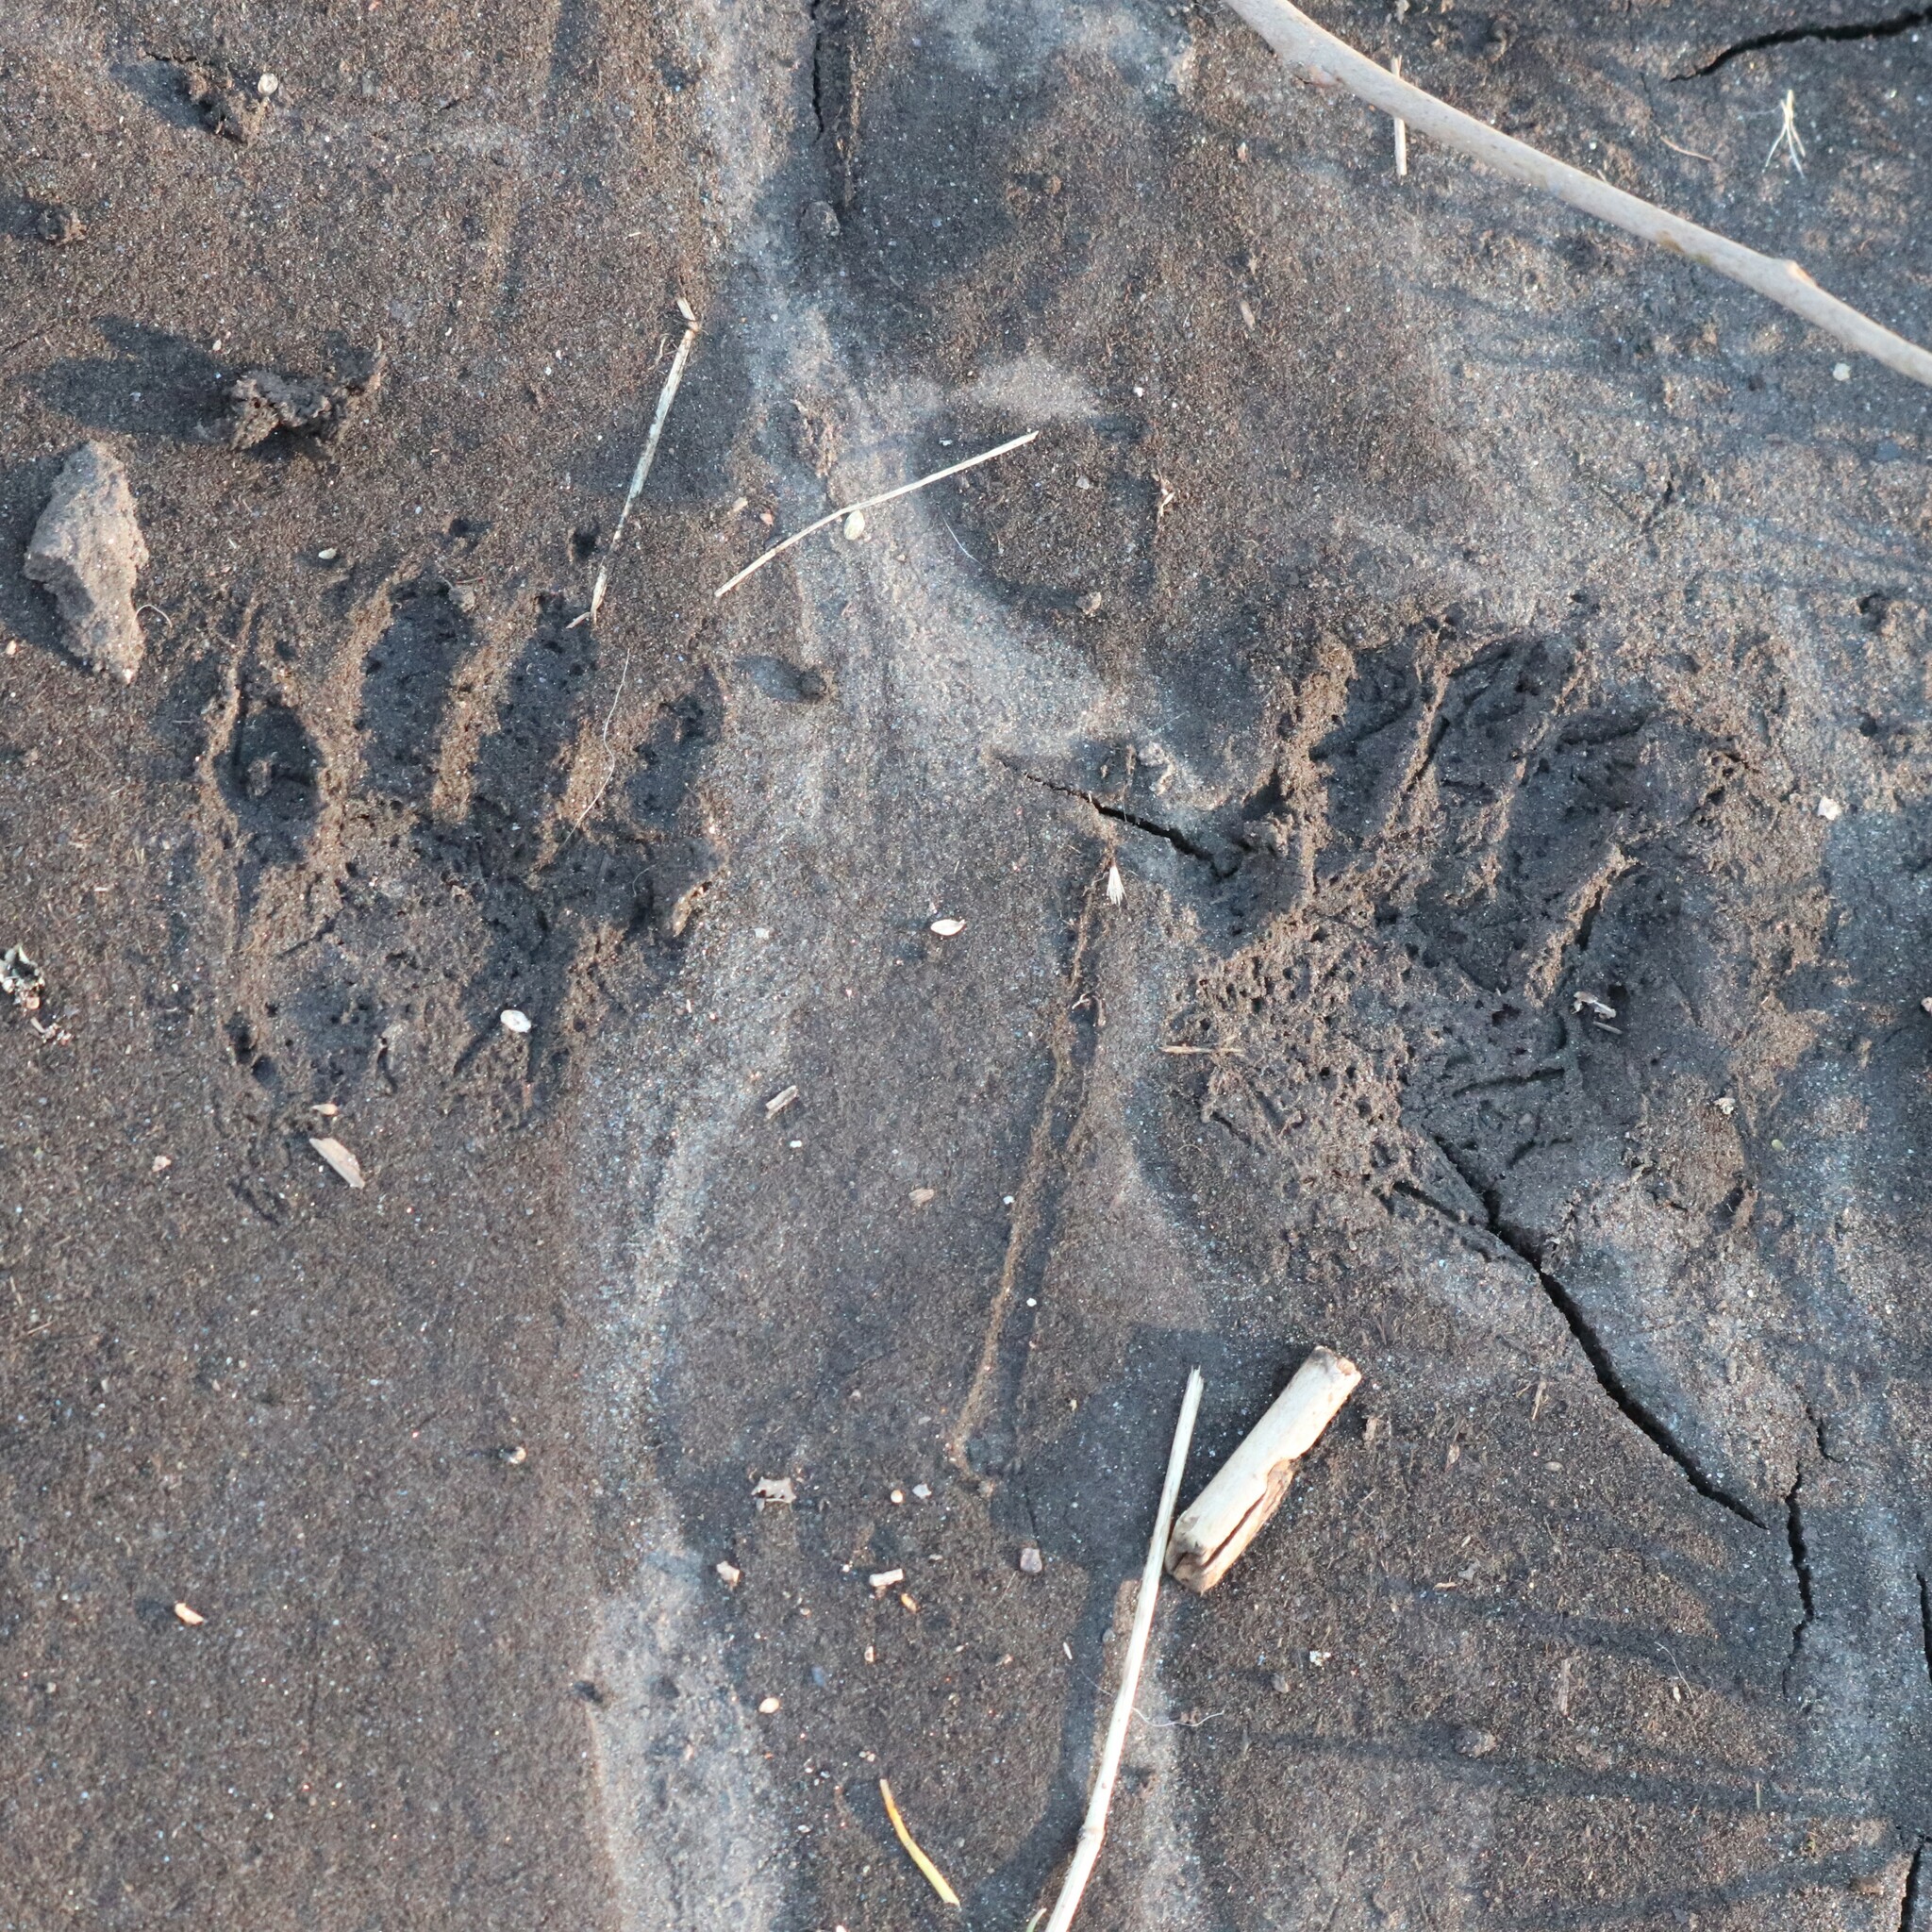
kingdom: Animalia
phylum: Chordata
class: Mammalia
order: Carnivora
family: Procyonidae
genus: Procyon
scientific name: Procyon lotor
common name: Raccoon
